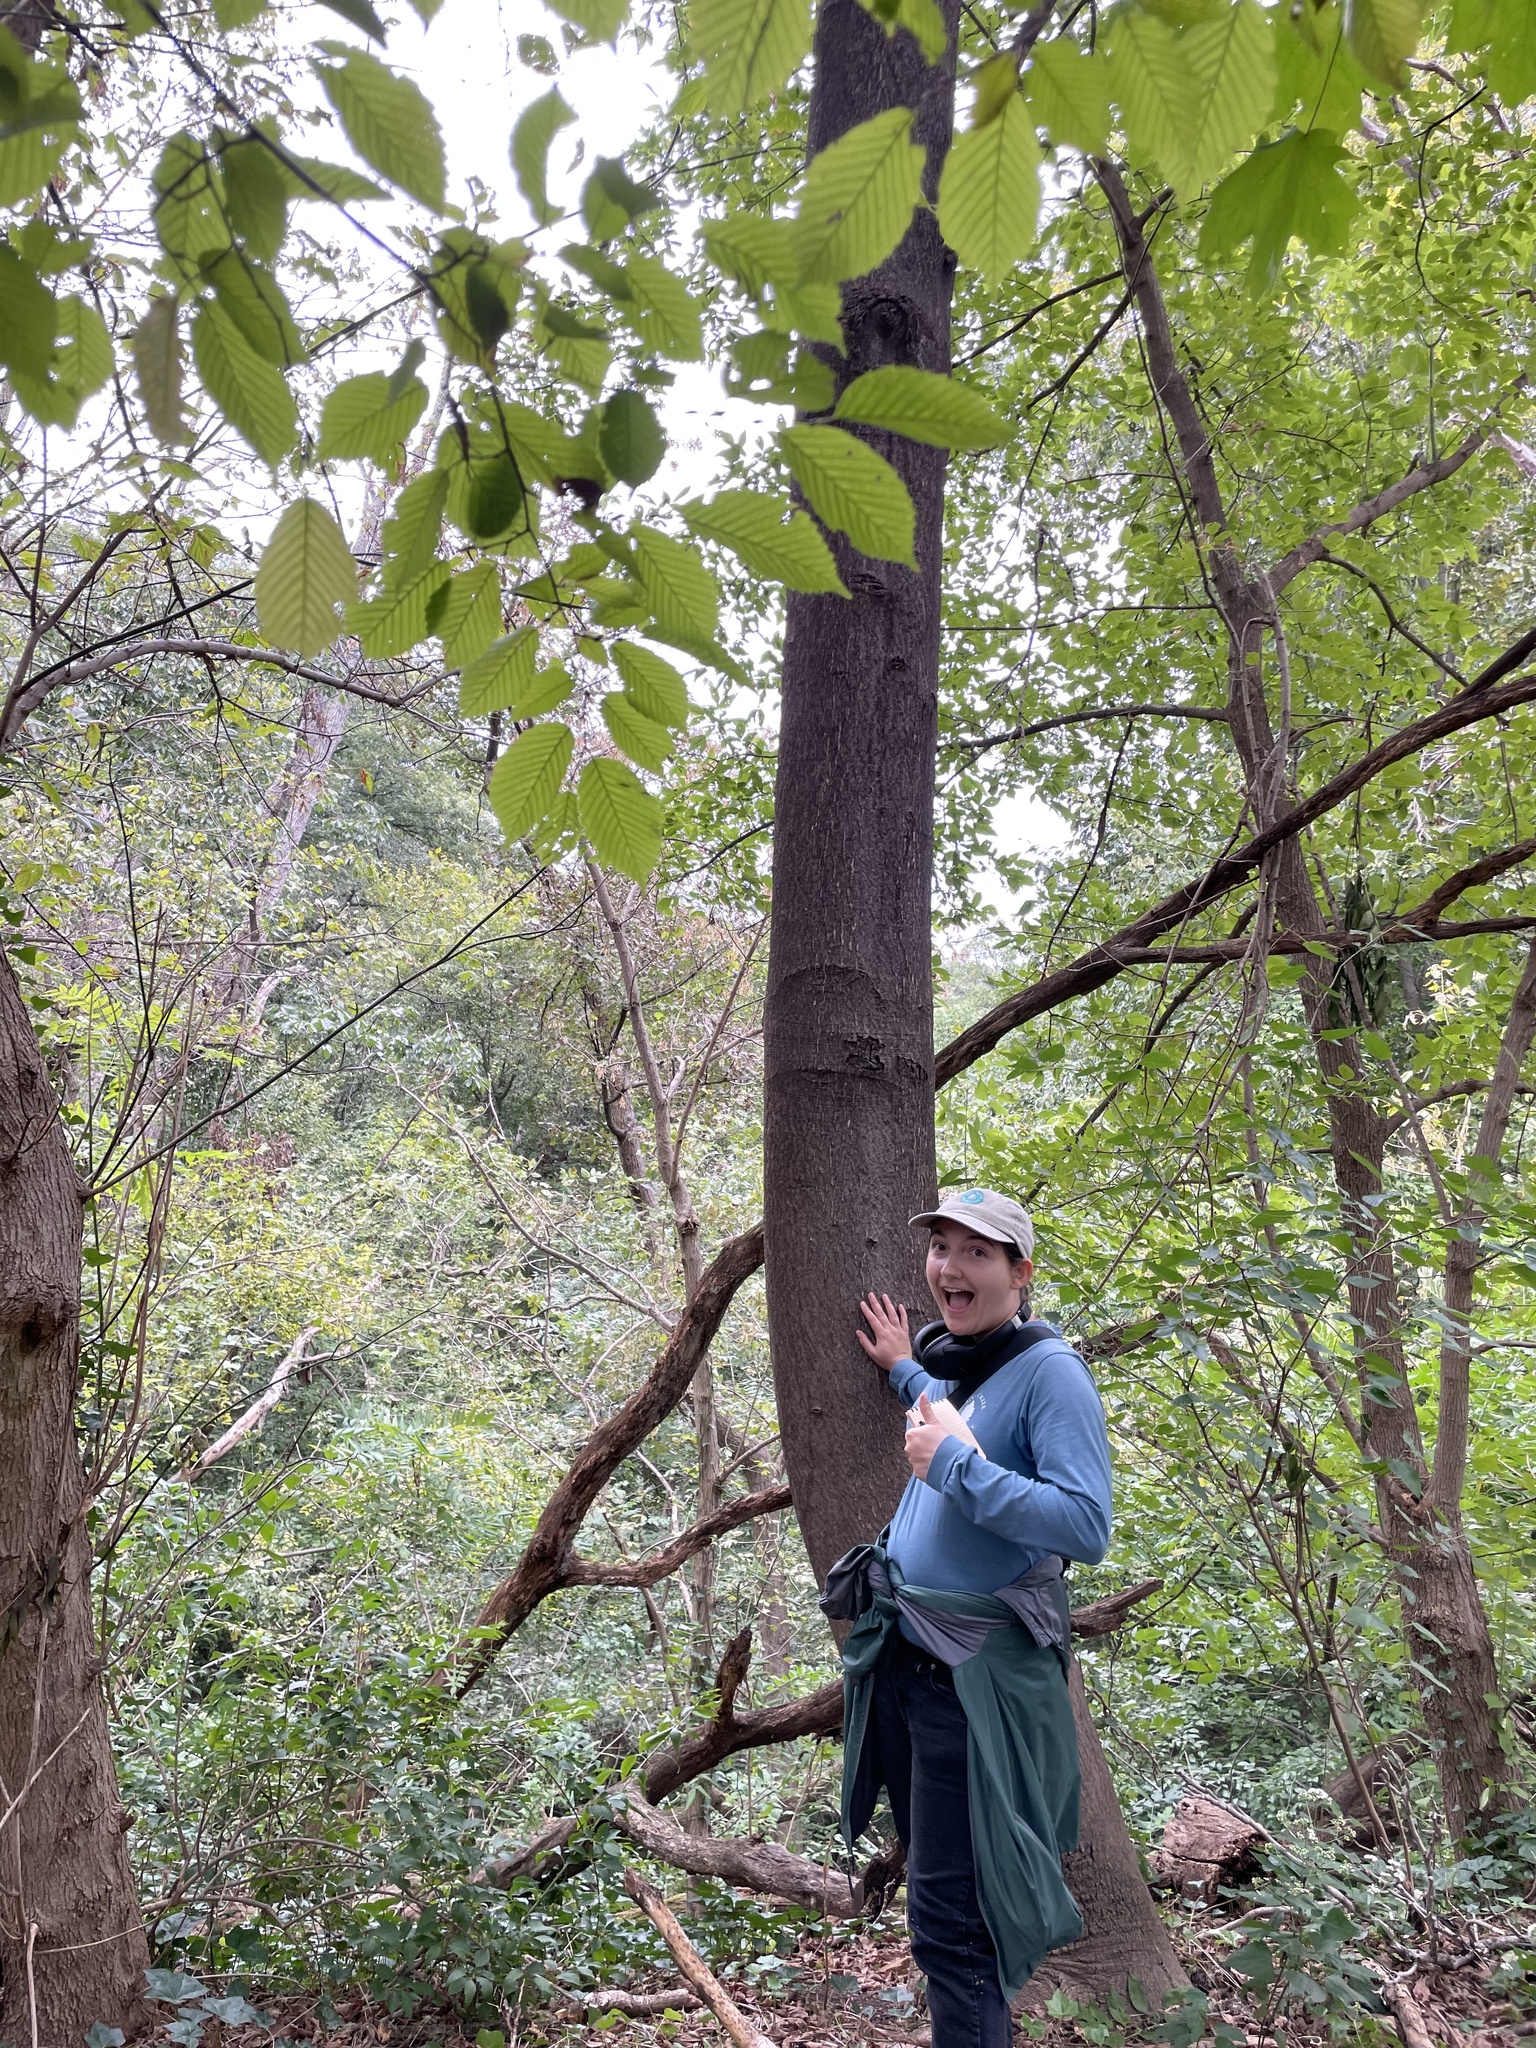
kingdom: Plantae
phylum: Tracheophyta
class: Magnoliopsida
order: Sapindales
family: Simaroubaceae
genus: Ailanthus
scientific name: Ailanthus altissima
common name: Tree-of-heaven
